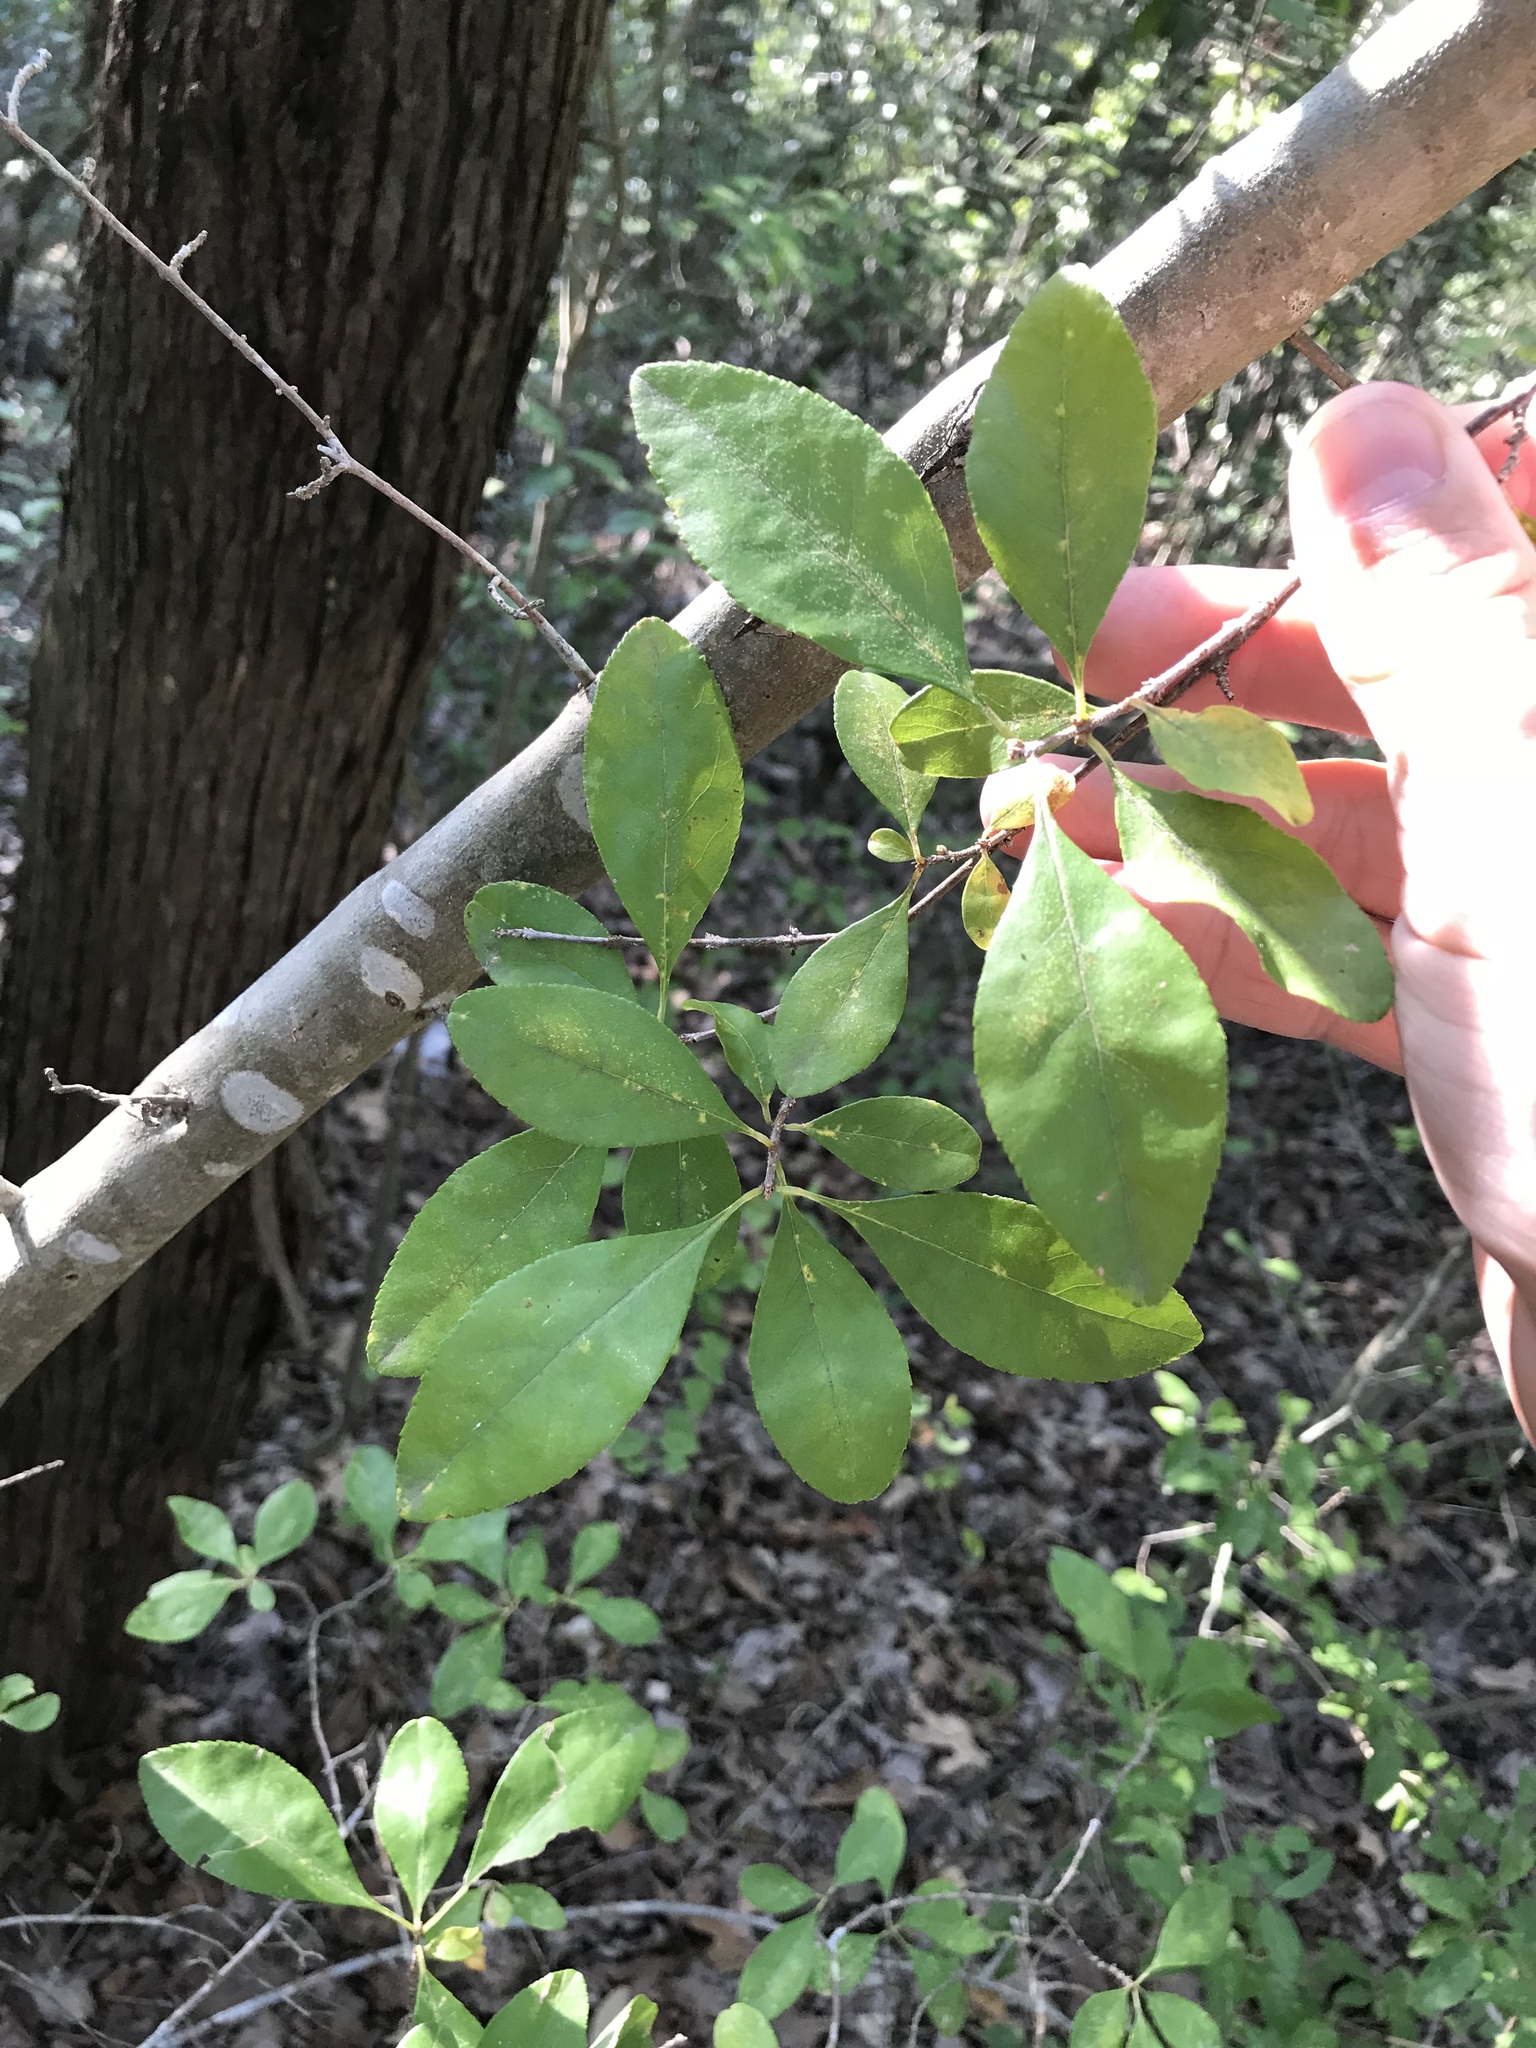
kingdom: Plantae
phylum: Tracheophyta
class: Magnoliopsida
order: Aquifoliales
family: Aquifoliaceae
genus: Ilex
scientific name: Ilex decidua
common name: Possum-haw
